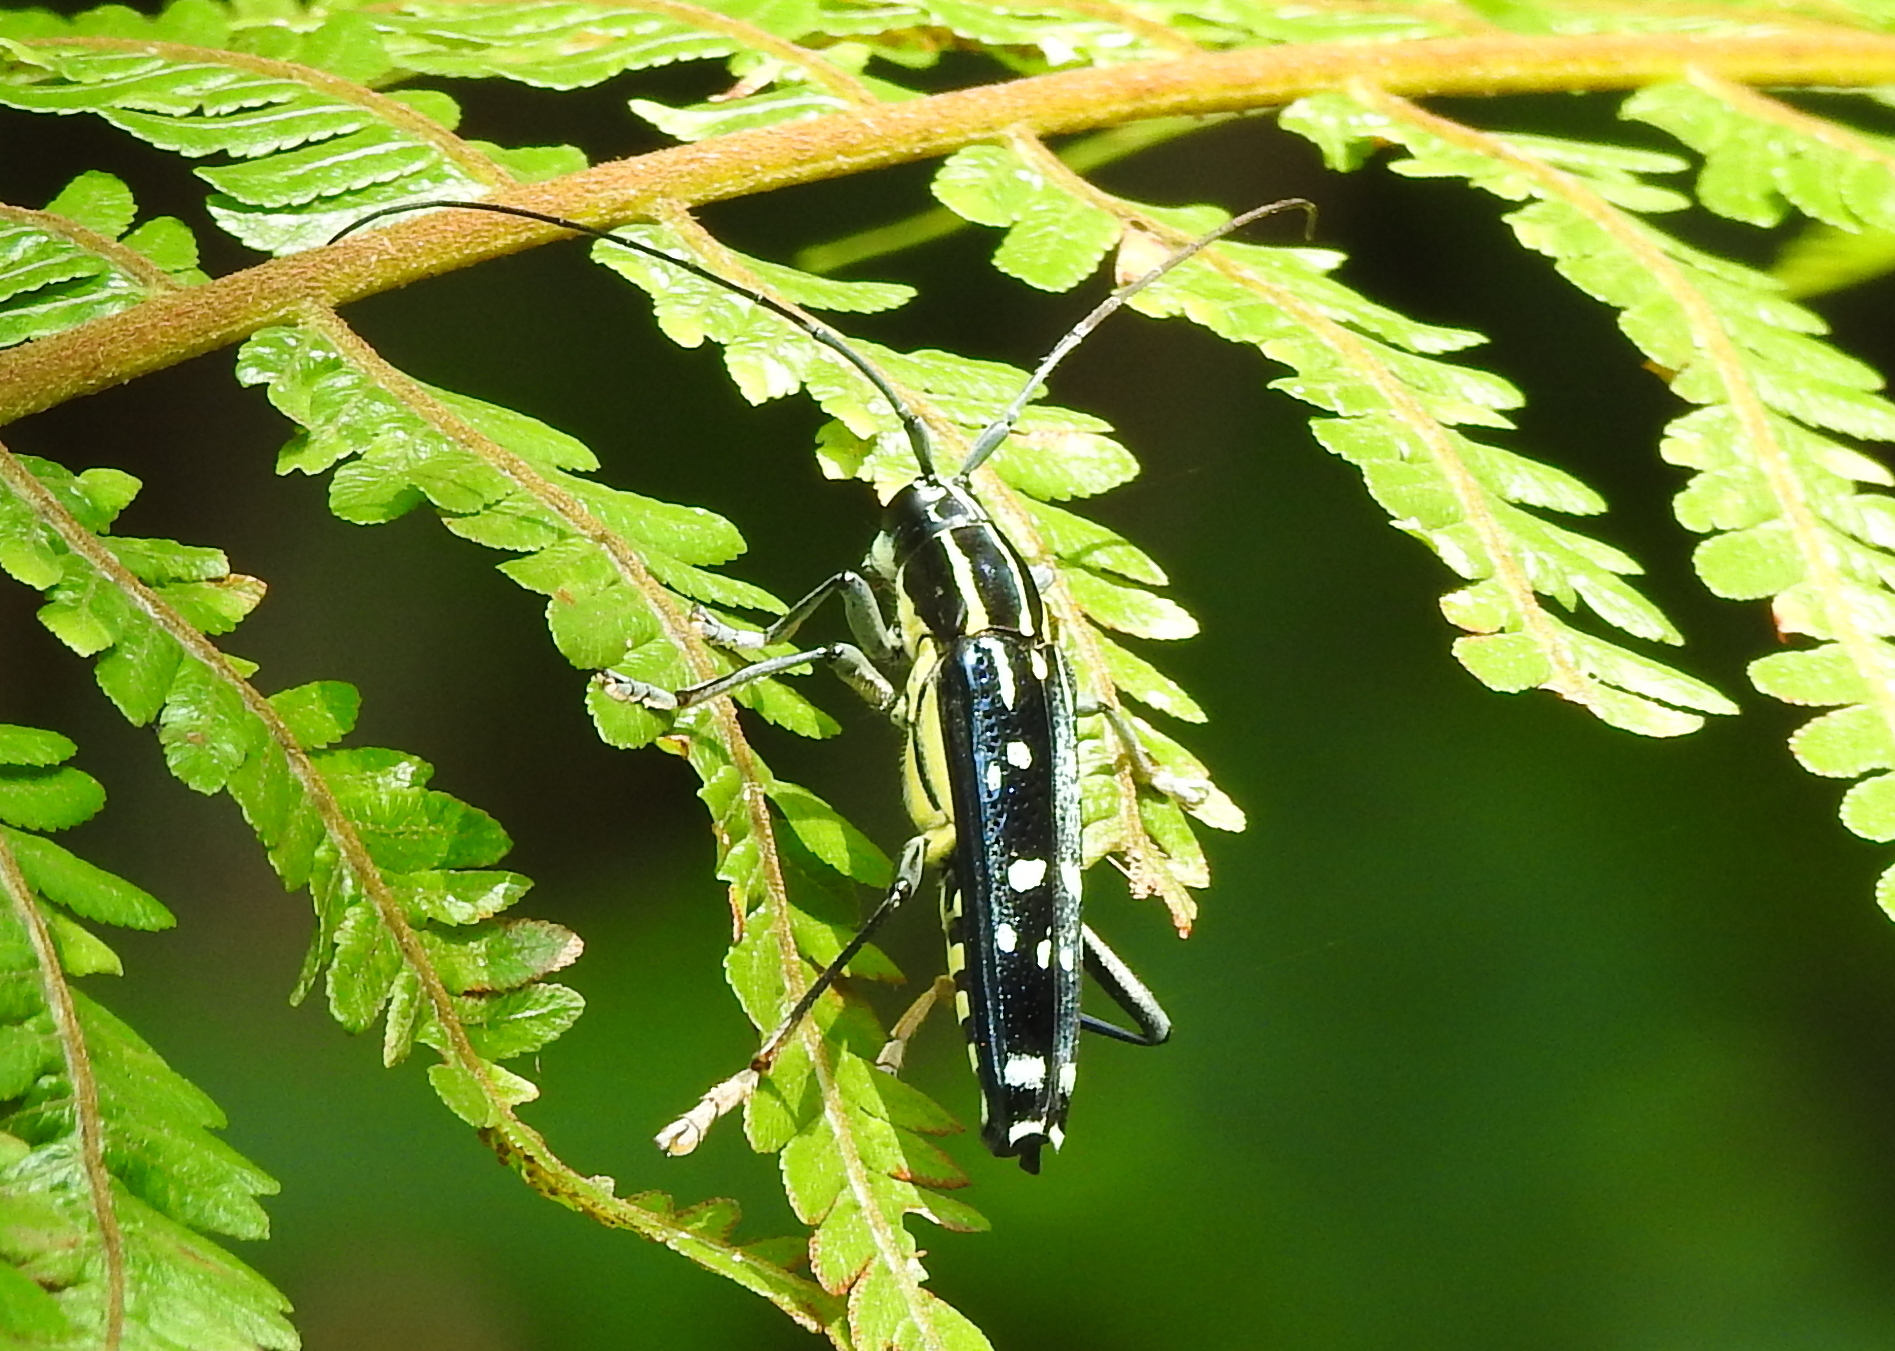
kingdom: Animalia
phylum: Arthropoda
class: Insecta
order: Coleoptera
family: Cerambycidae
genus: Glenea
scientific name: Glenea elegans
